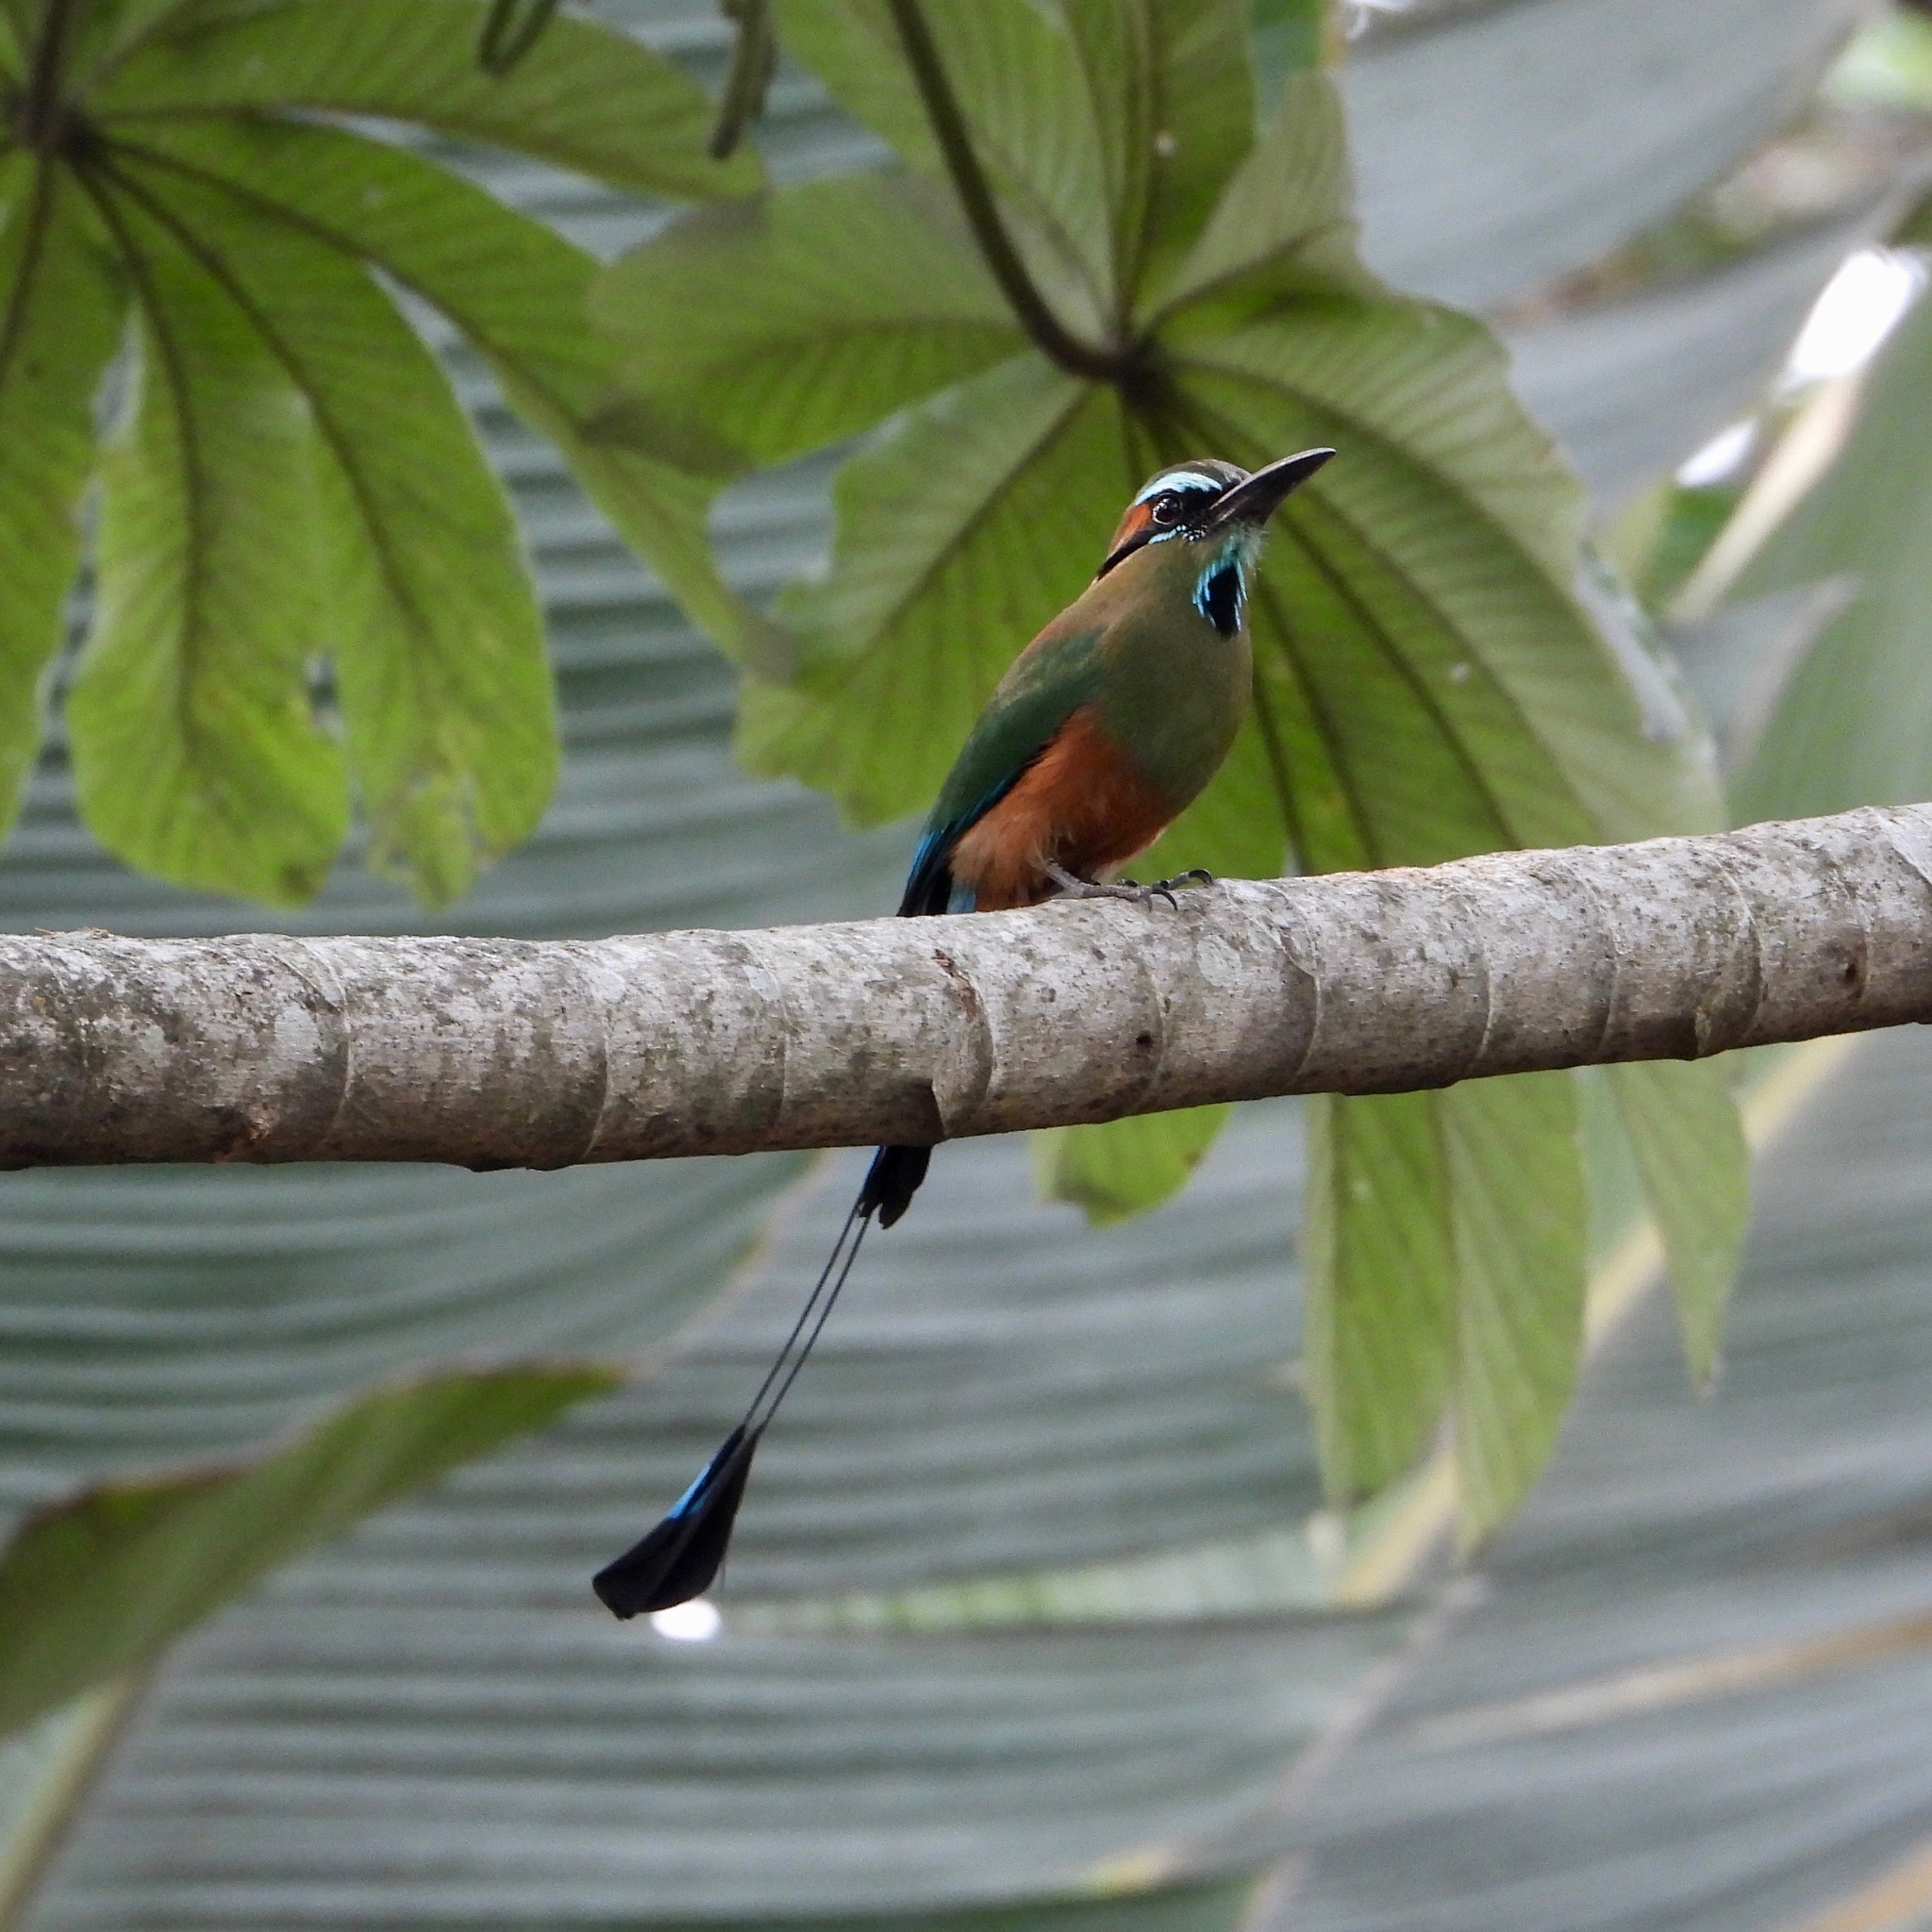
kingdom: Animalia
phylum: Chordata
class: Aves
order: Coraciiformes
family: Momotidae
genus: Eumomota
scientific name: Eumomota superciliosa
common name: Turquoise-browed motmot
